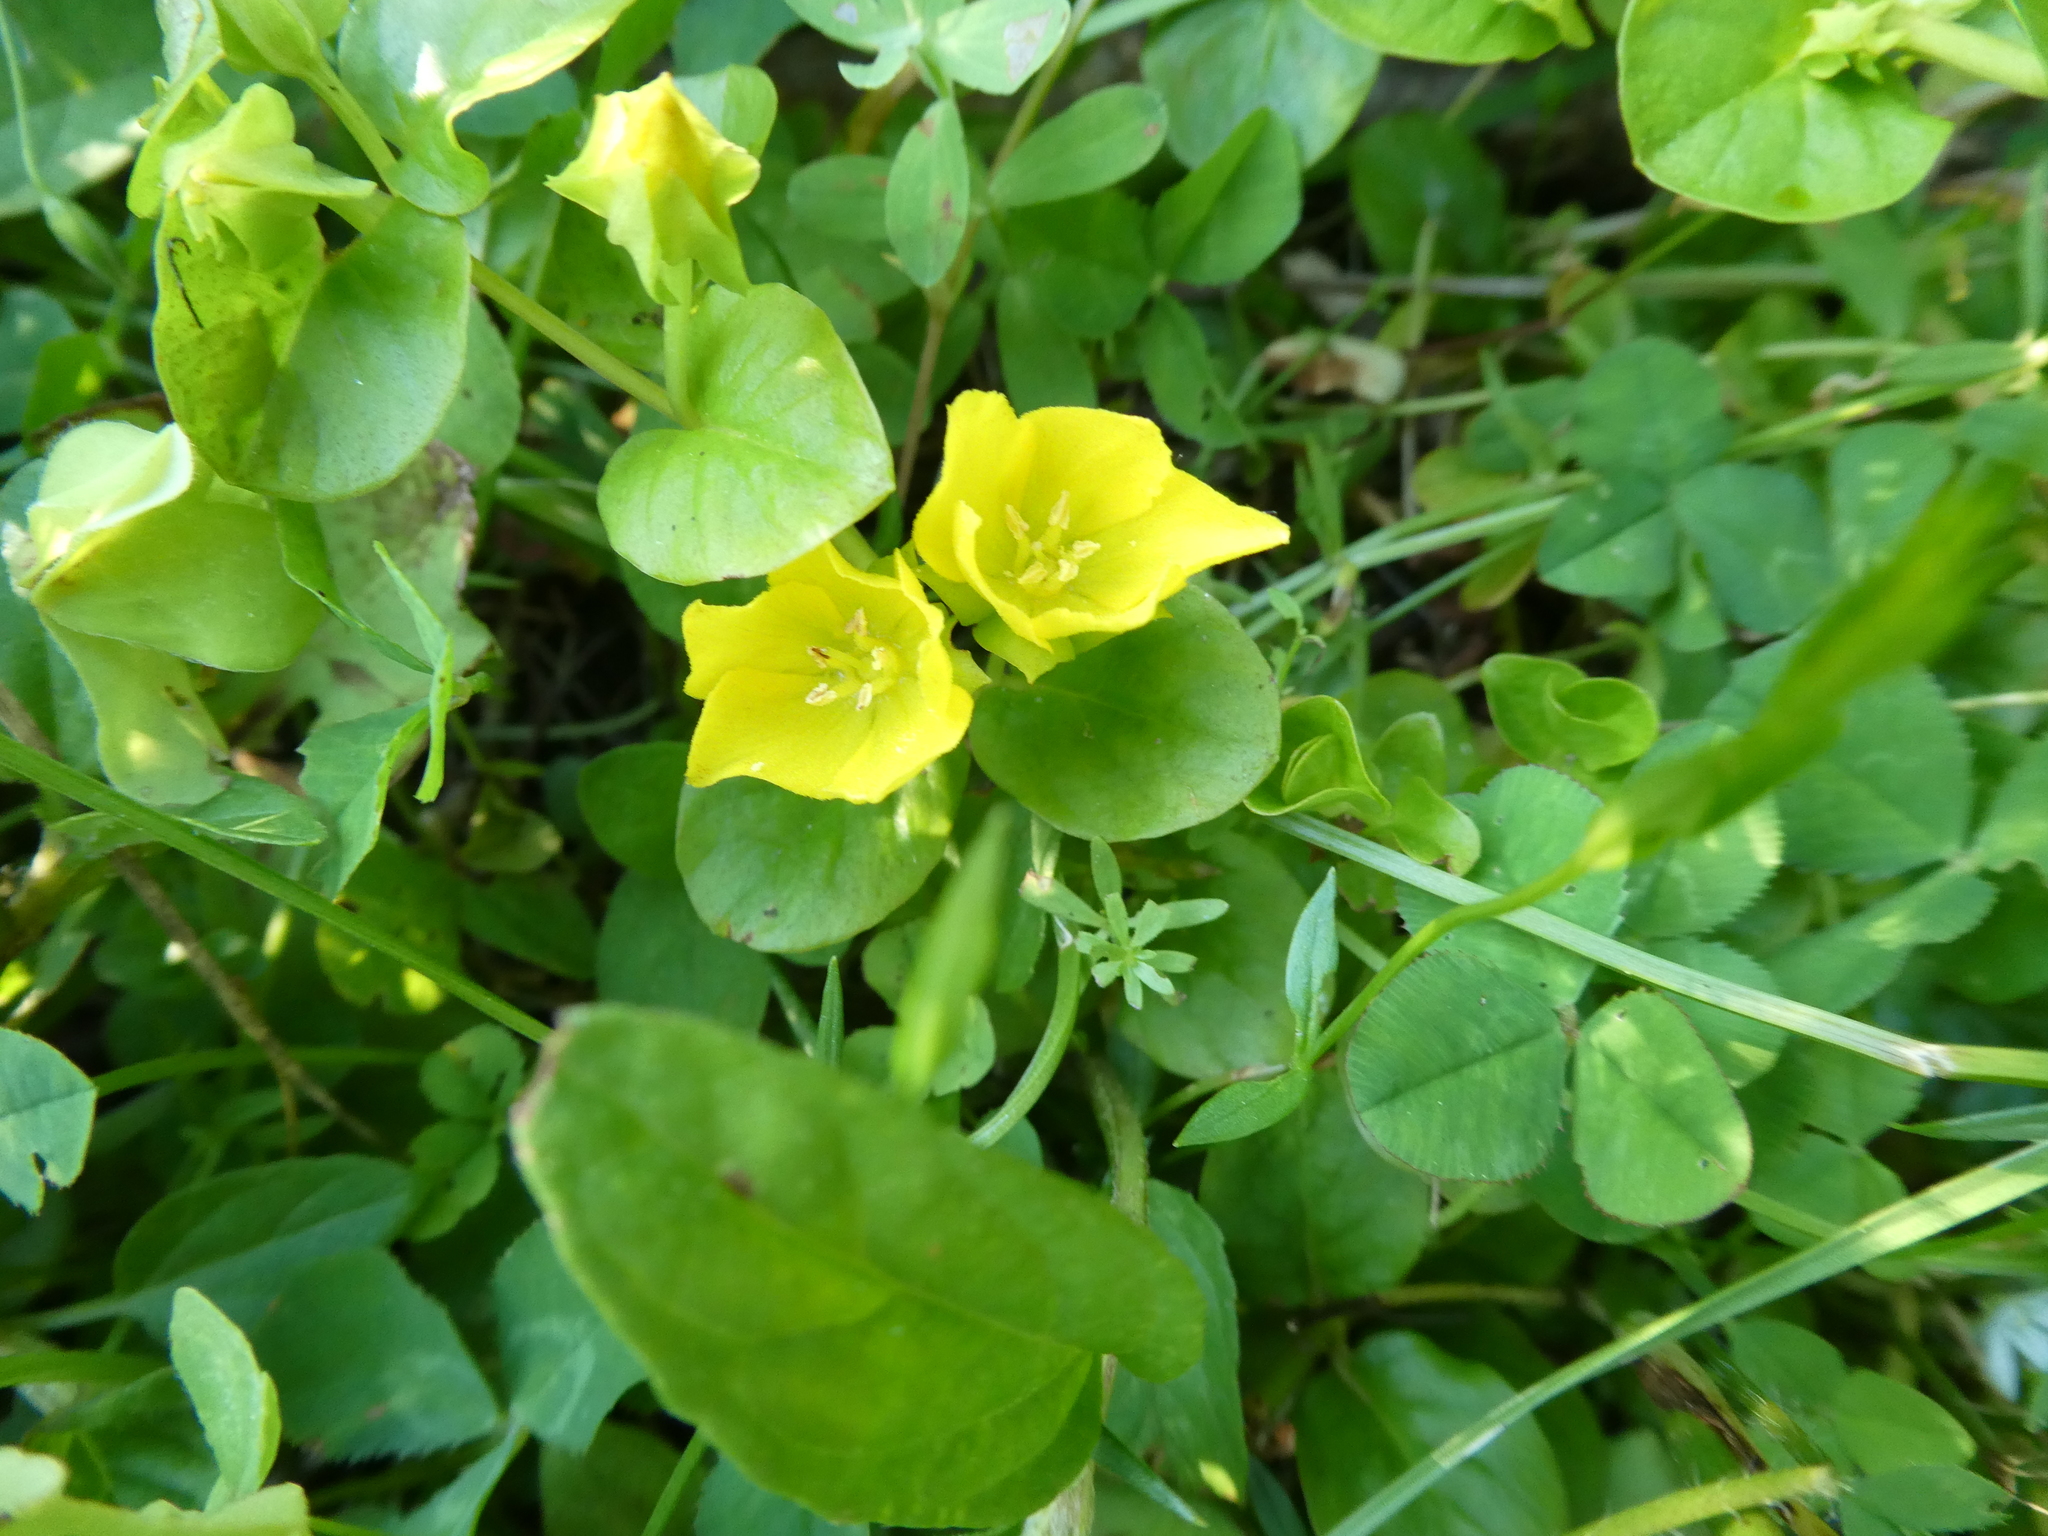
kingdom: Plantae
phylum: Tracheophyta
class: Magnoliopsida
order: Ericales
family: Primulaceae
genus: Lysimachia
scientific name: Lysimachia nummularia
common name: Moneywort
